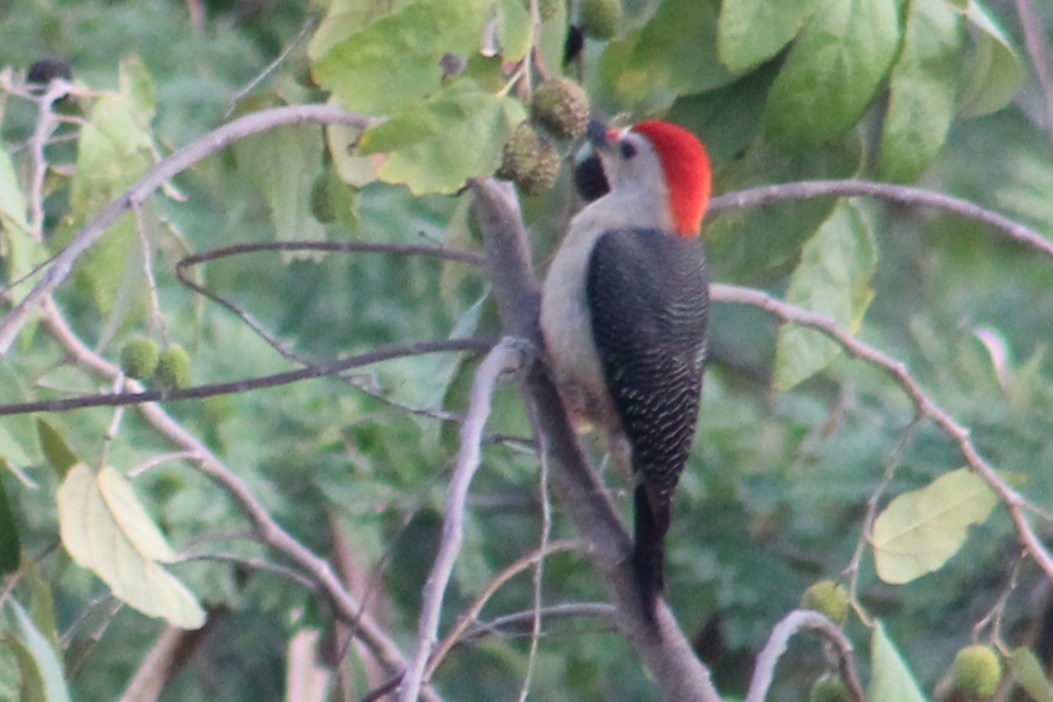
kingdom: Animalia
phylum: Chordata
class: Aves
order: Piciformes
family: Picidae
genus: Melanerpes
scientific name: Melanerpes aurifrons
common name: Golden-fronted woodpecker
